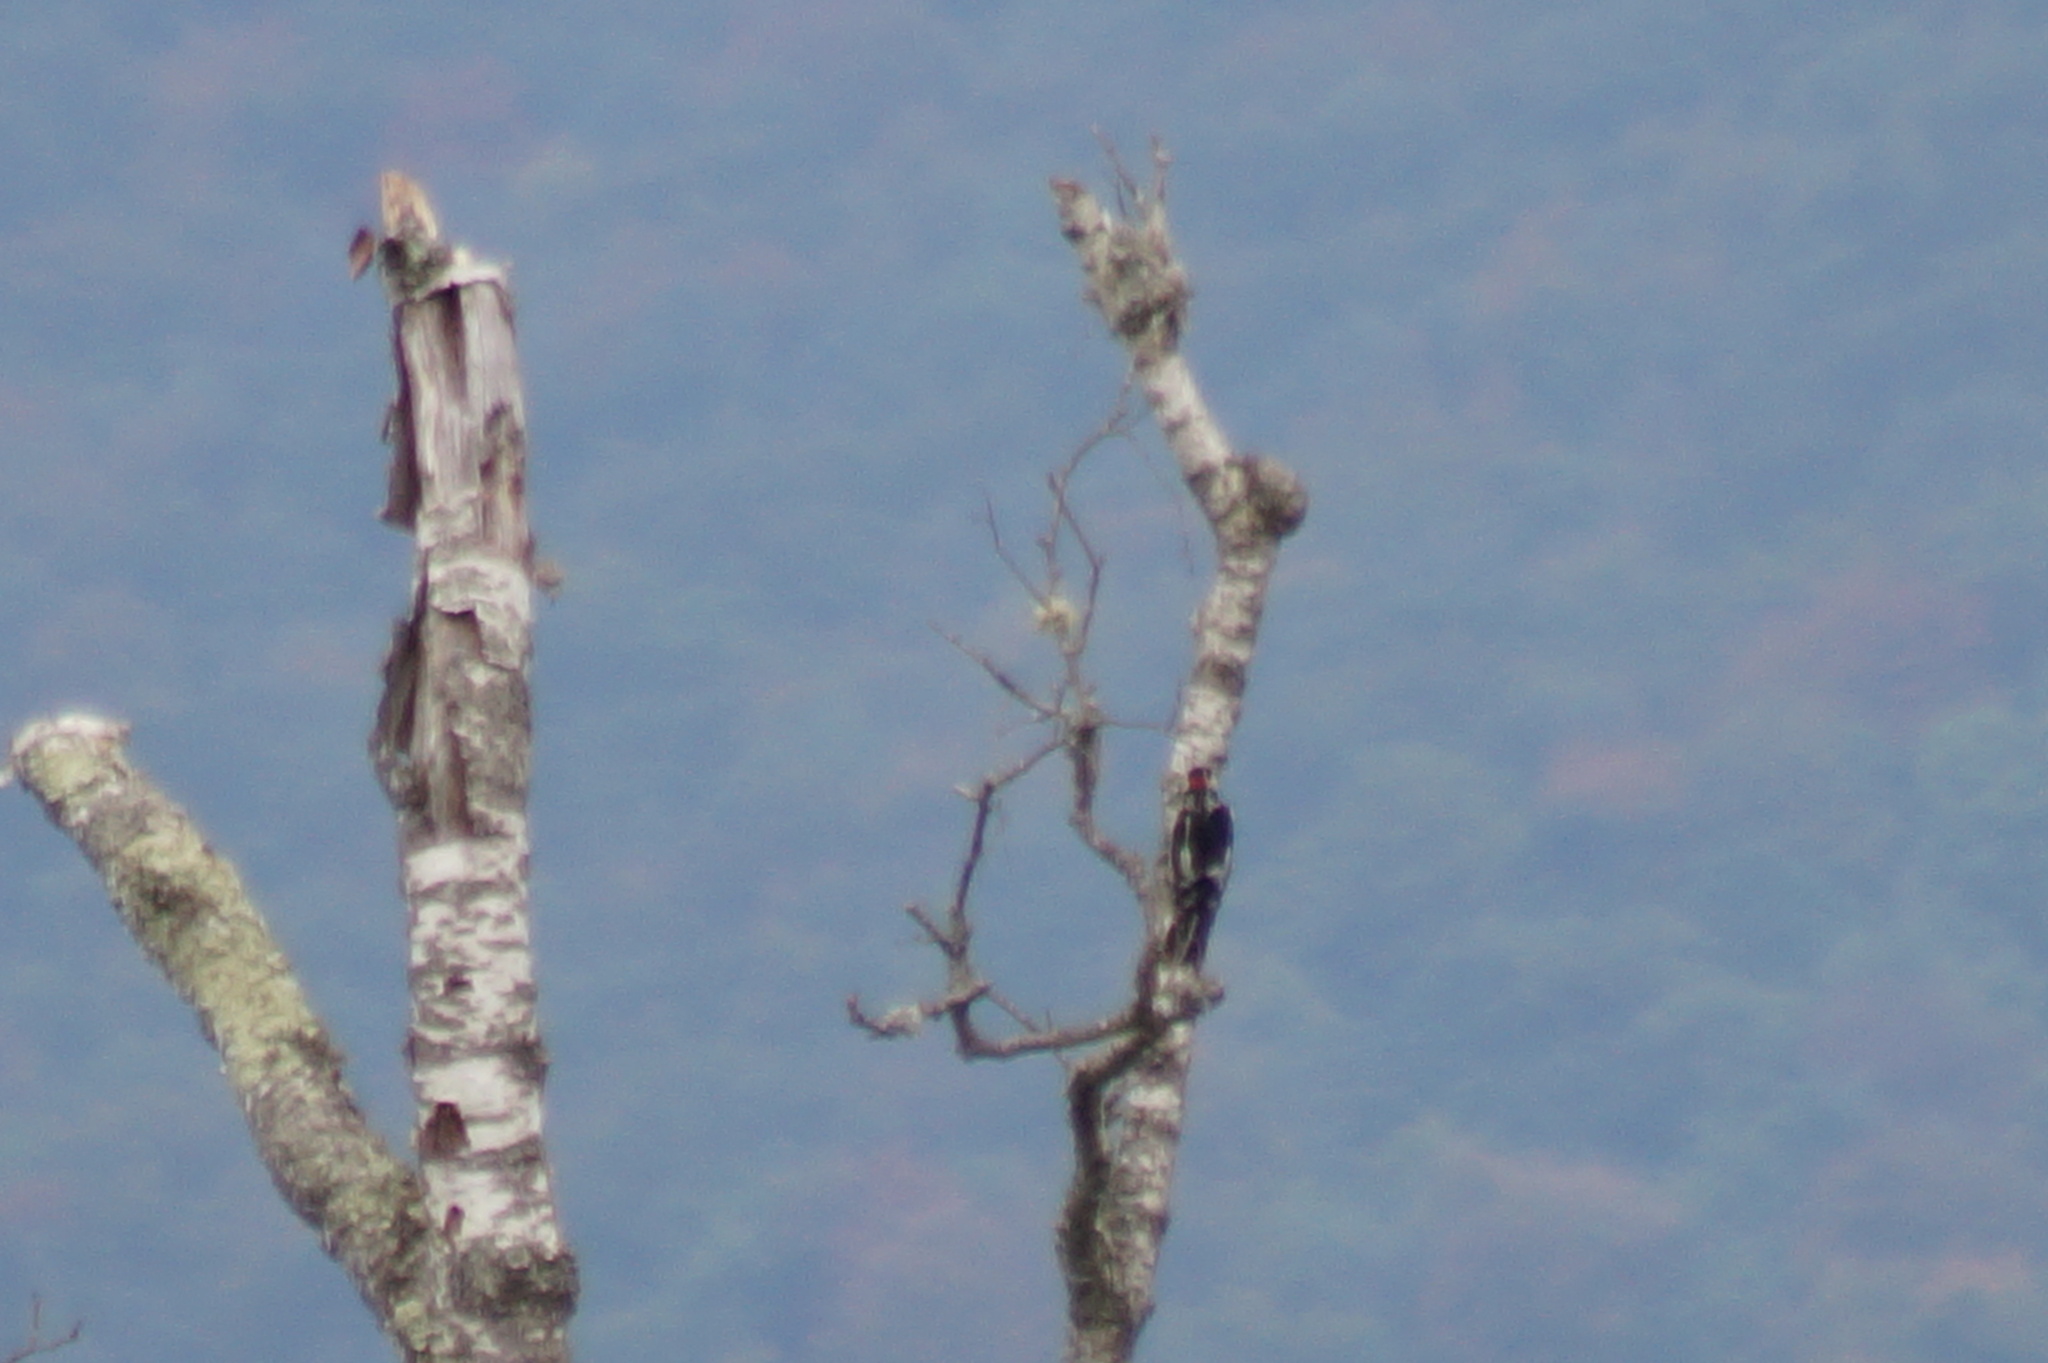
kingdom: Animalia
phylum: Chordata
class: Aves
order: Piciformes
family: Picidae
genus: Dendrocopos
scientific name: Dendrocopos major
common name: Great spotted woodpecker
